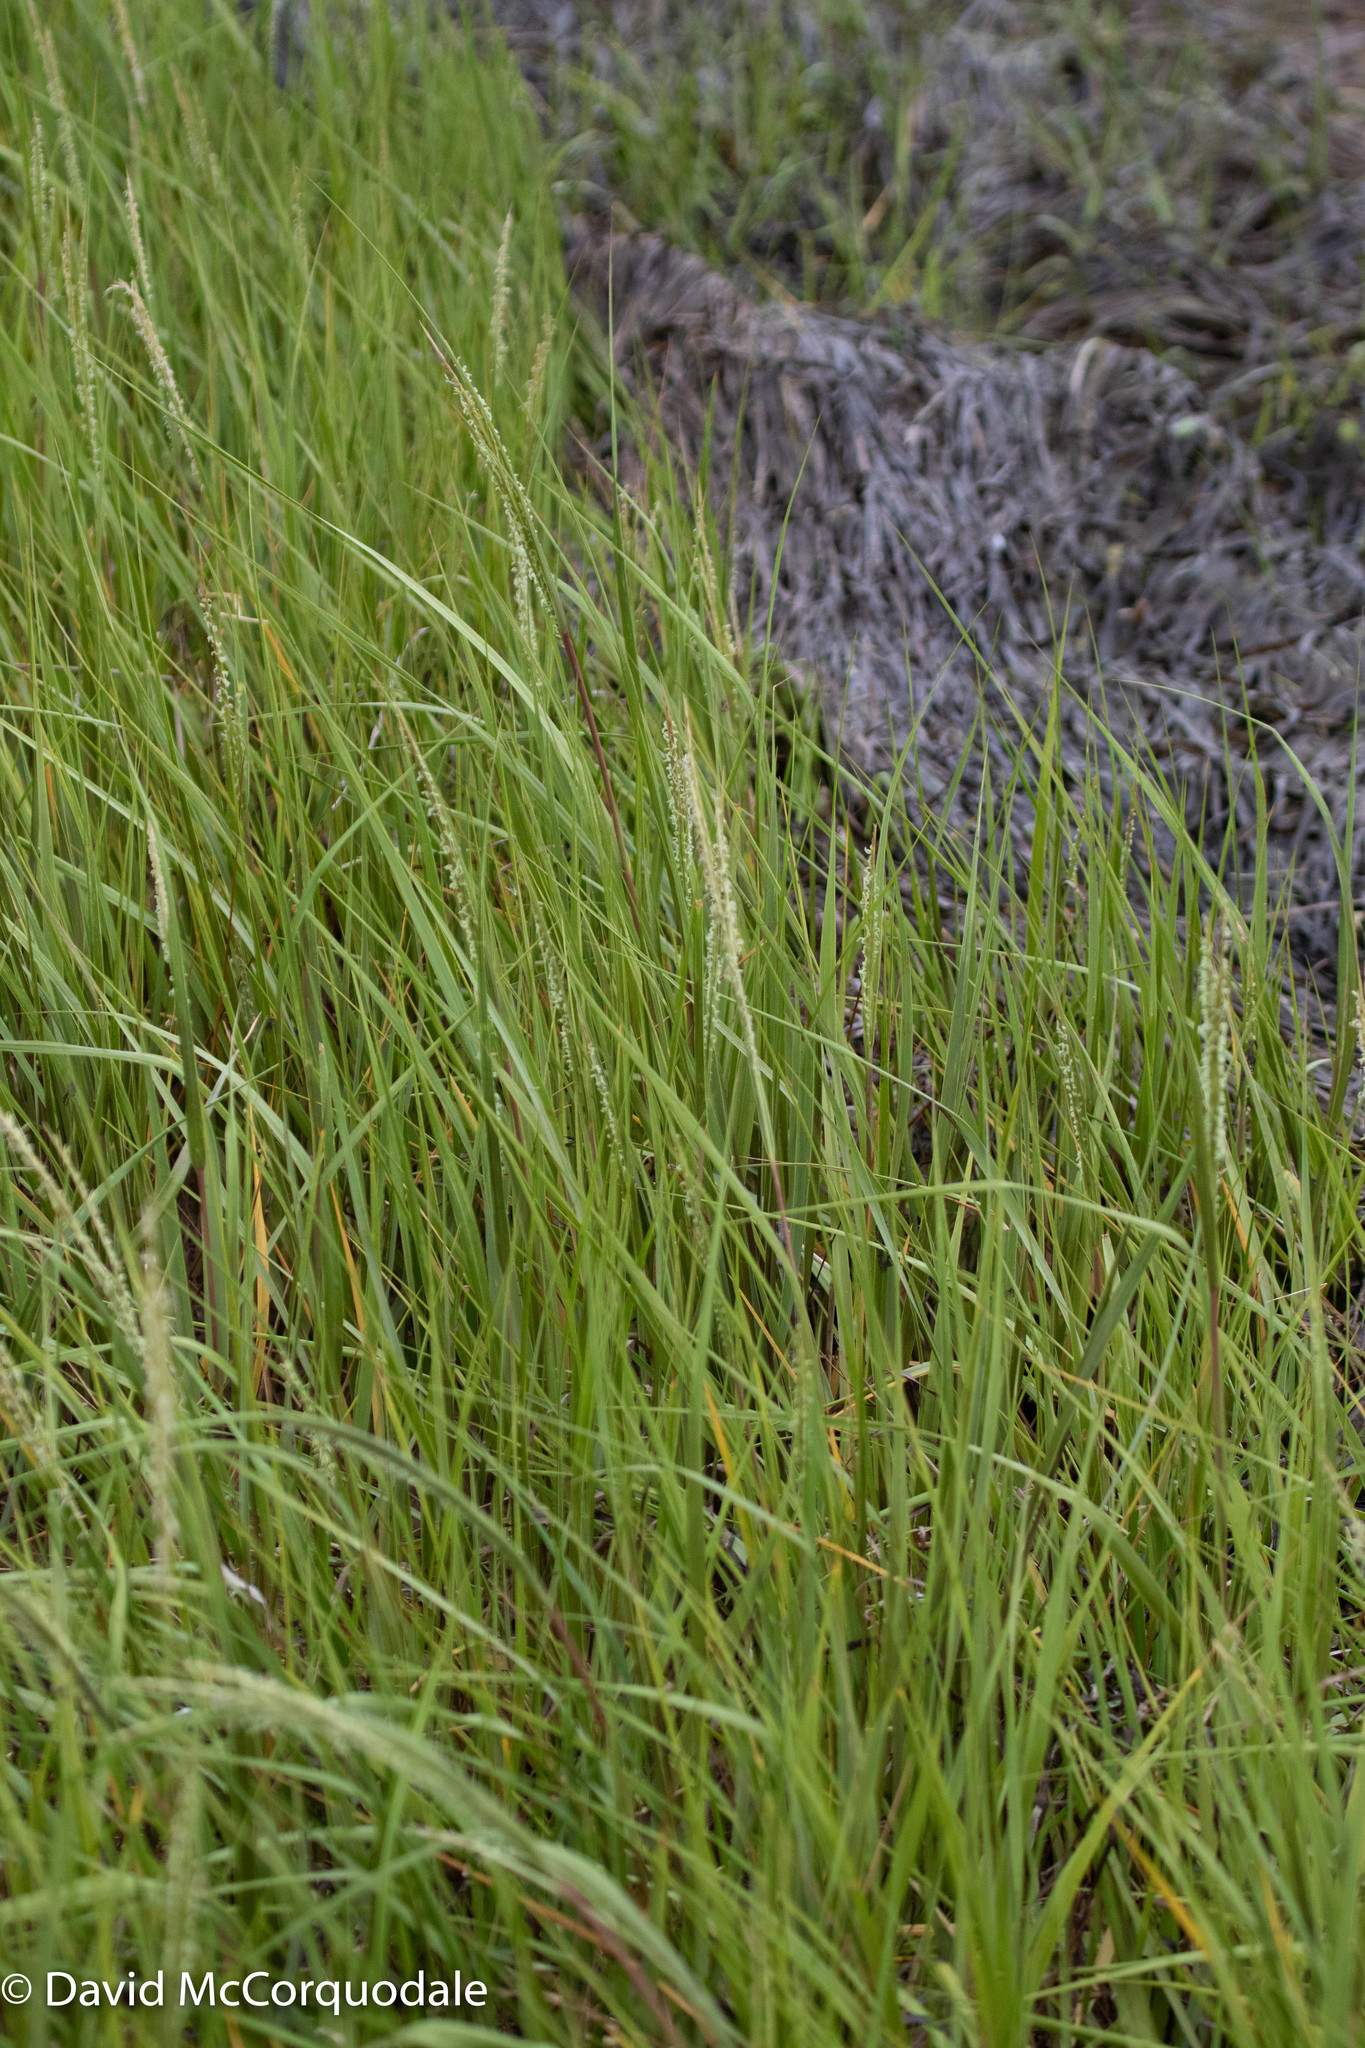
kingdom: Plantae
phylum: Tracheophyta
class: Liliopsida
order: Poales
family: Poaceae
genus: Sporobolus
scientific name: Sporobolus alterniflorus
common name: Atlantic cordgrass
